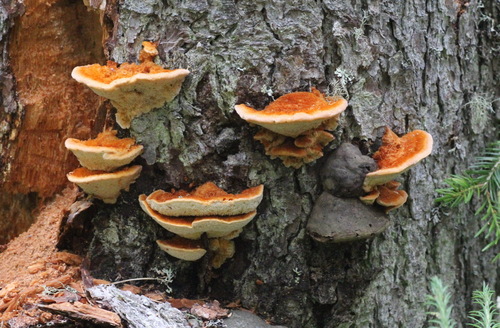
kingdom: Fungi
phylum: Basidiomycota
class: Agaricomycetes
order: Hymenochaetales
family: Hymenochaetaceae
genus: Inocutis
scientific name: Inocutis rheades
